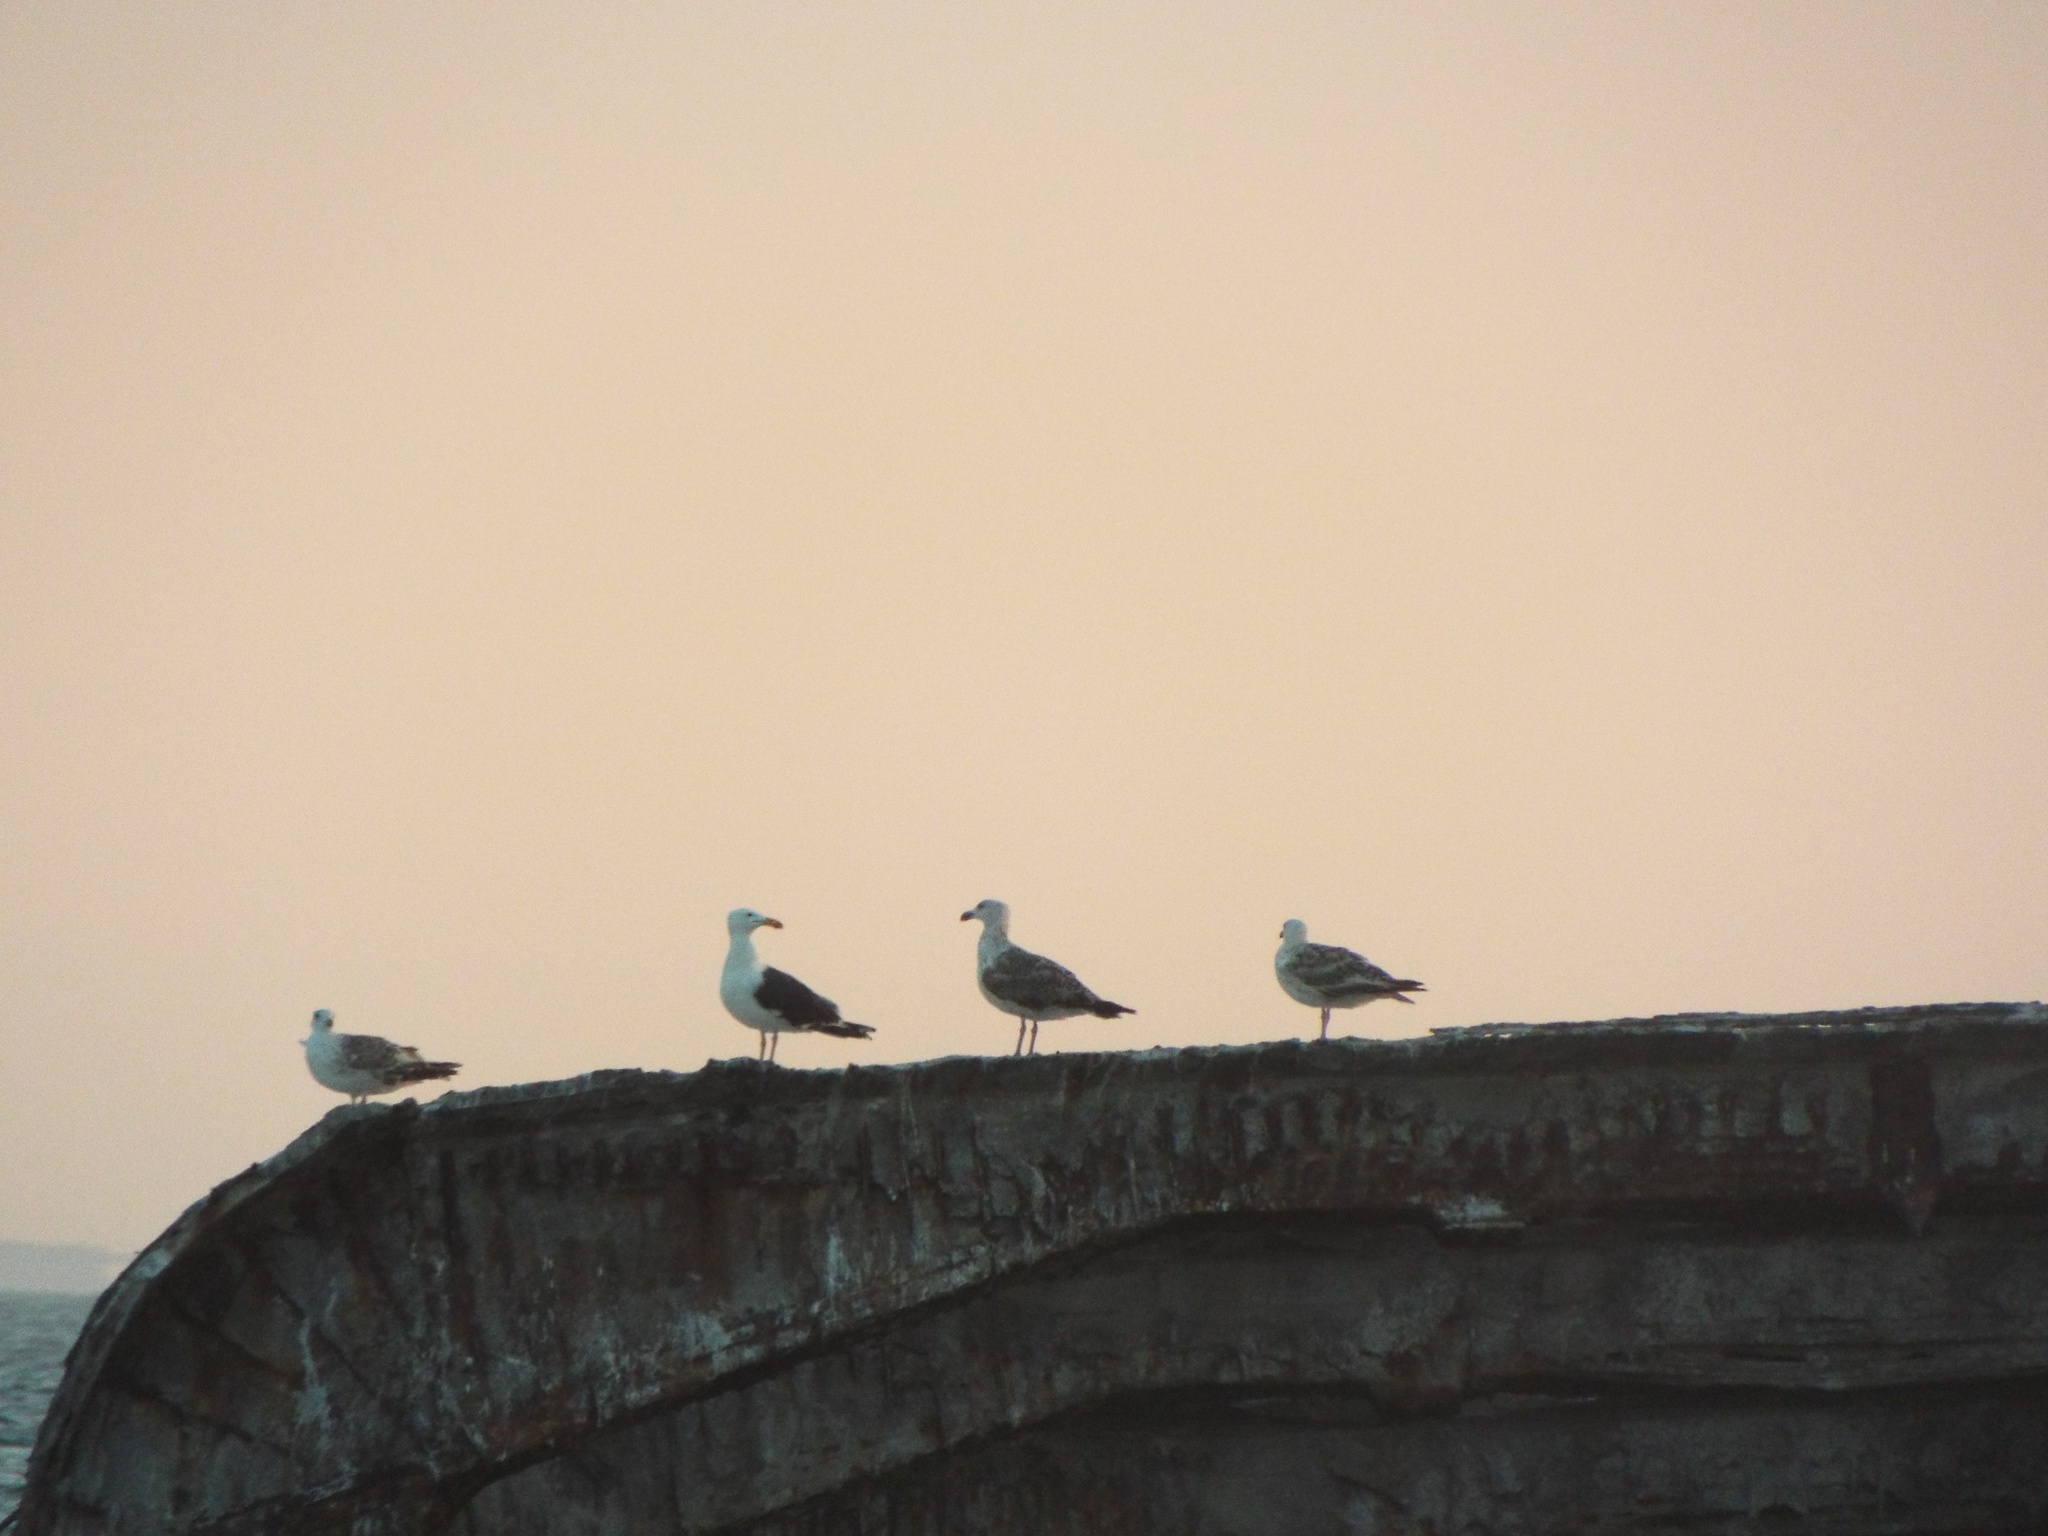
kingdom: Animalia
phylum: Chordata
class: Aves
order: Charadriiformes
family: Laridae
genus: Larus
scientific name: Larus marinus
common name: Great black-backed gull
